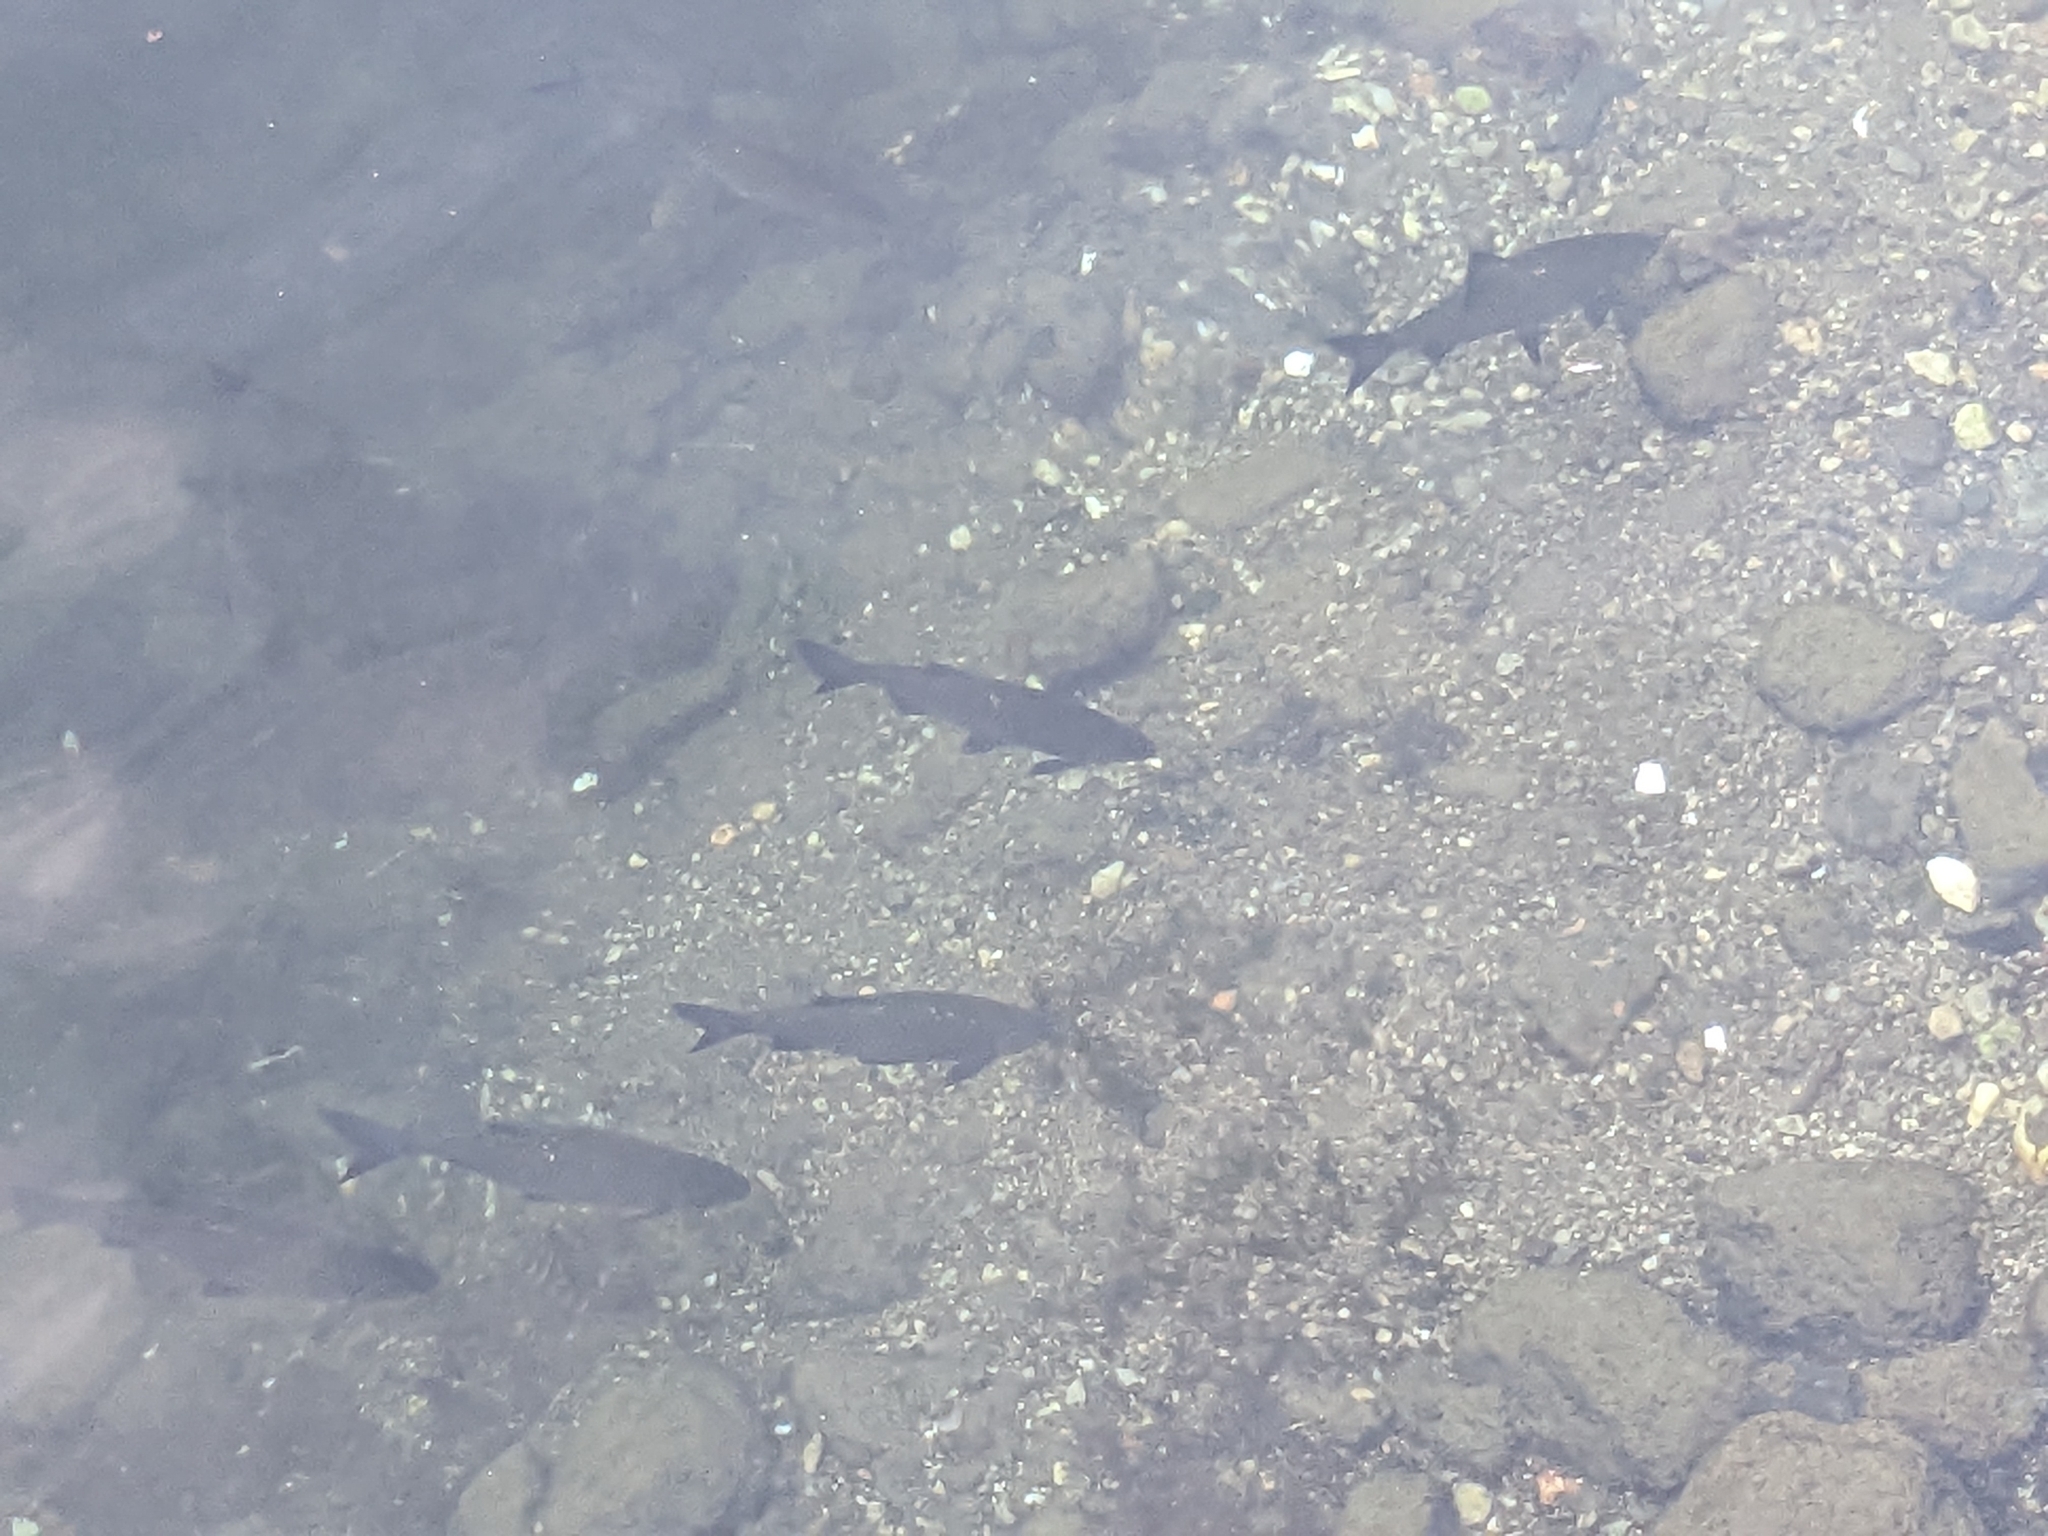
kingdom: Animalia
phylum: Chordata
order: Cypriniformes
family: Cyprinidae
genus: Rutilus
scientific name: Rutilus pigus
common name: Danube roach
